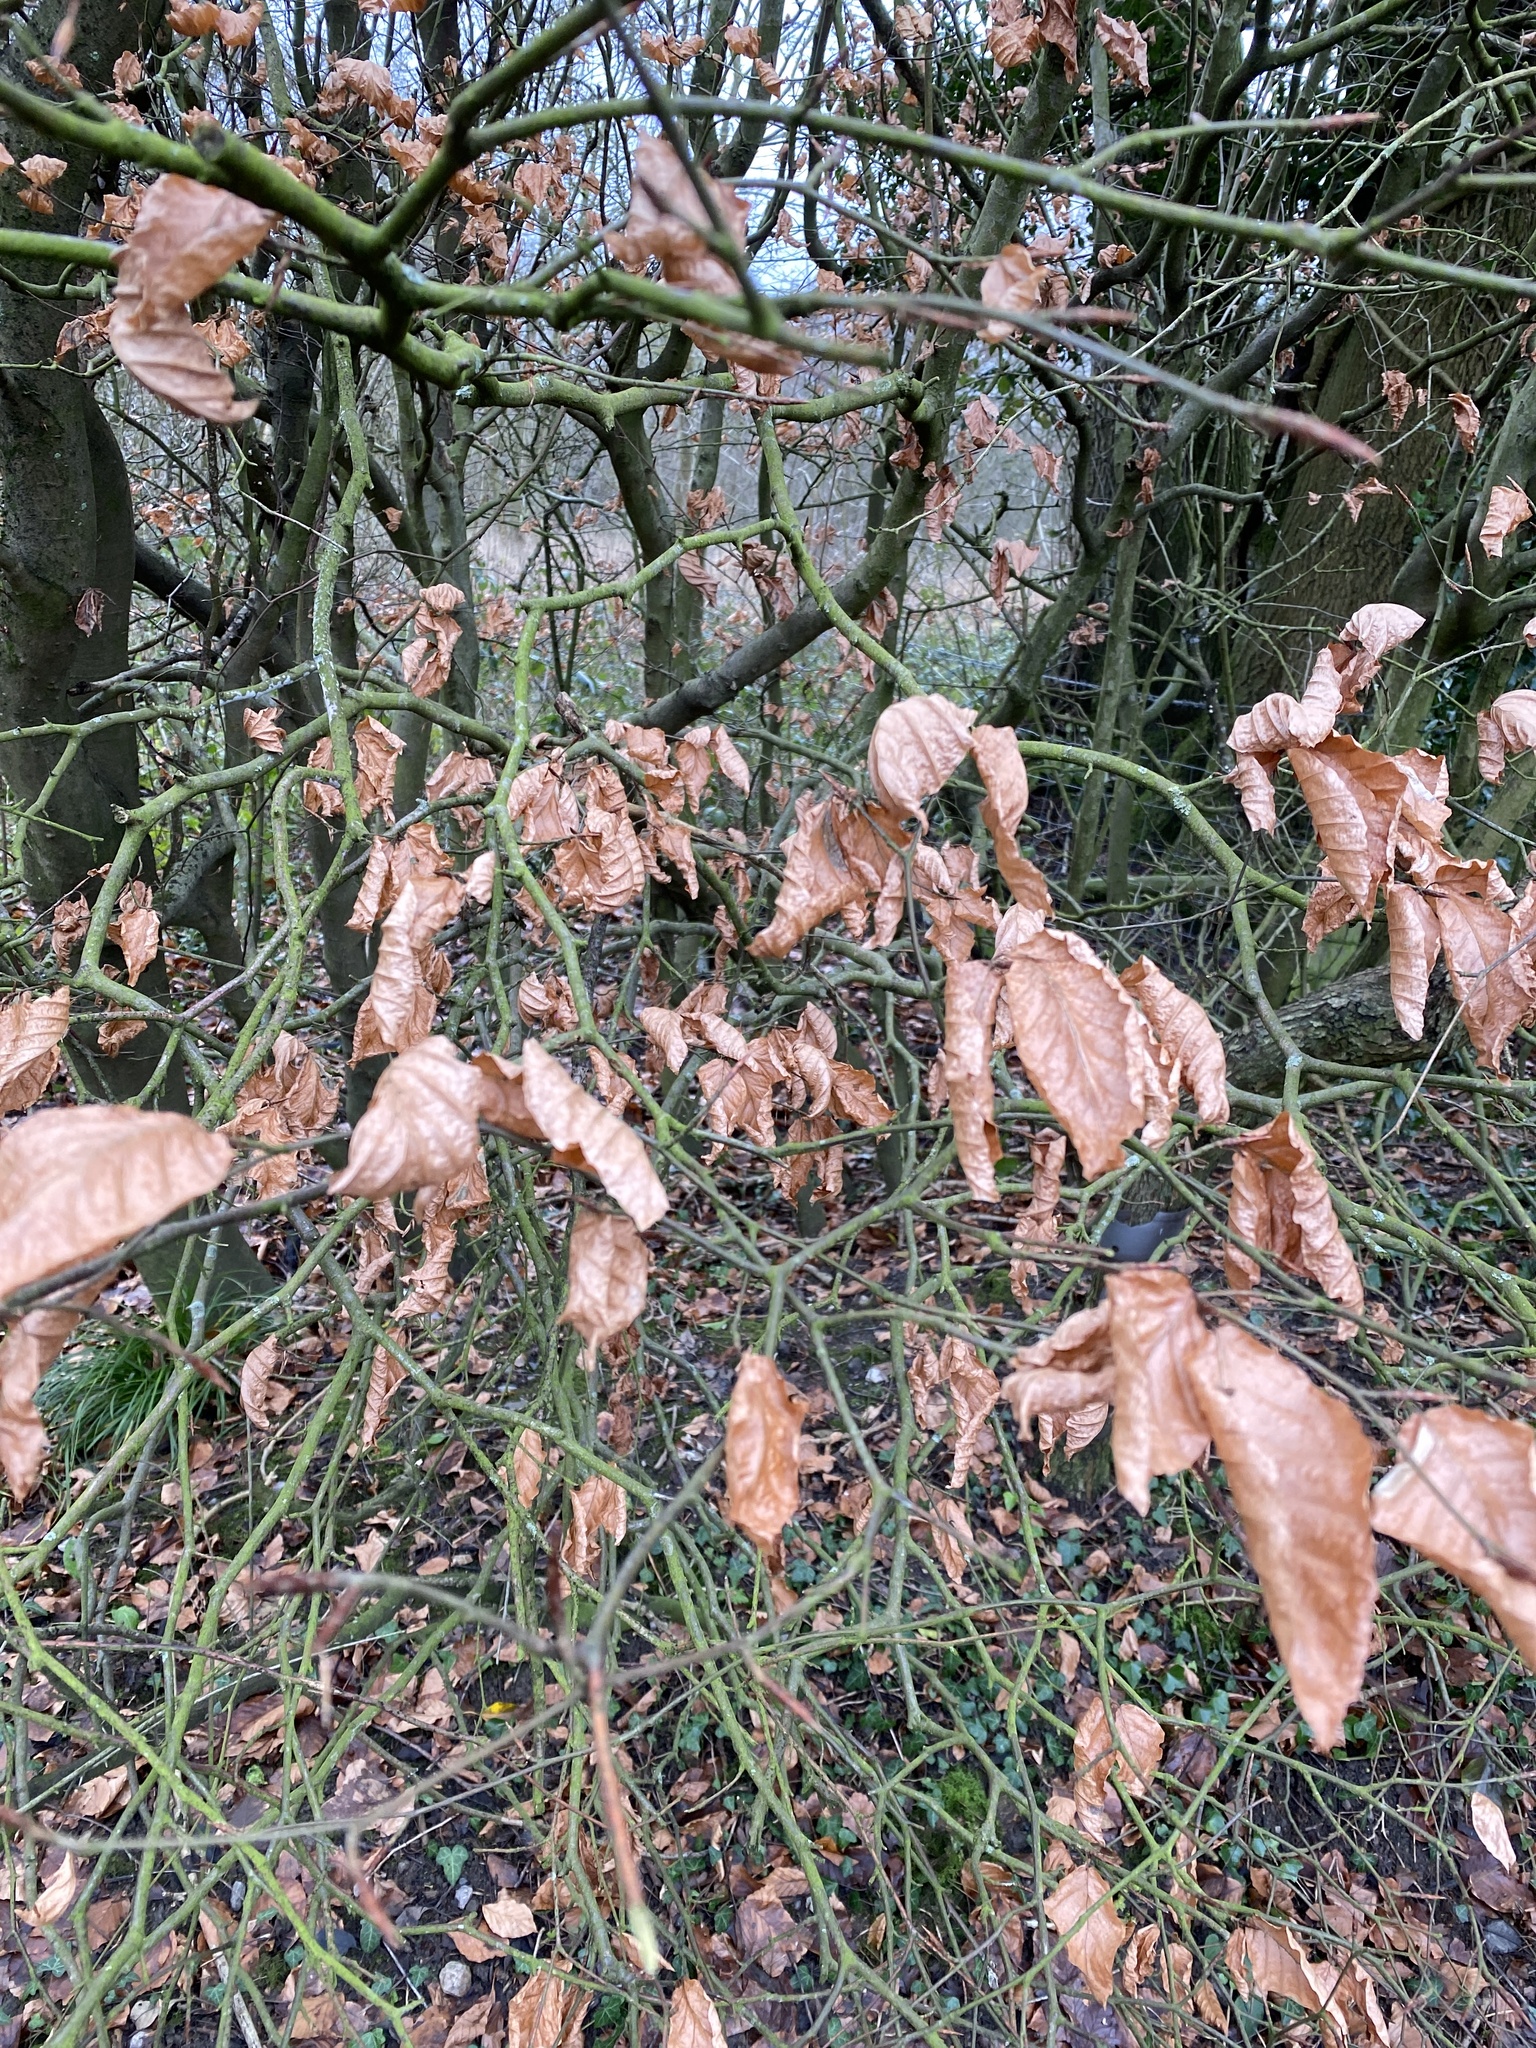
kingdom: Plantae
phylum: Tracheophyta
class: Magnoliopsida
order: Fagales
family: Fagaceae
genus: Fagus
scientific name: Fagus sylvatica
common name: Beech
